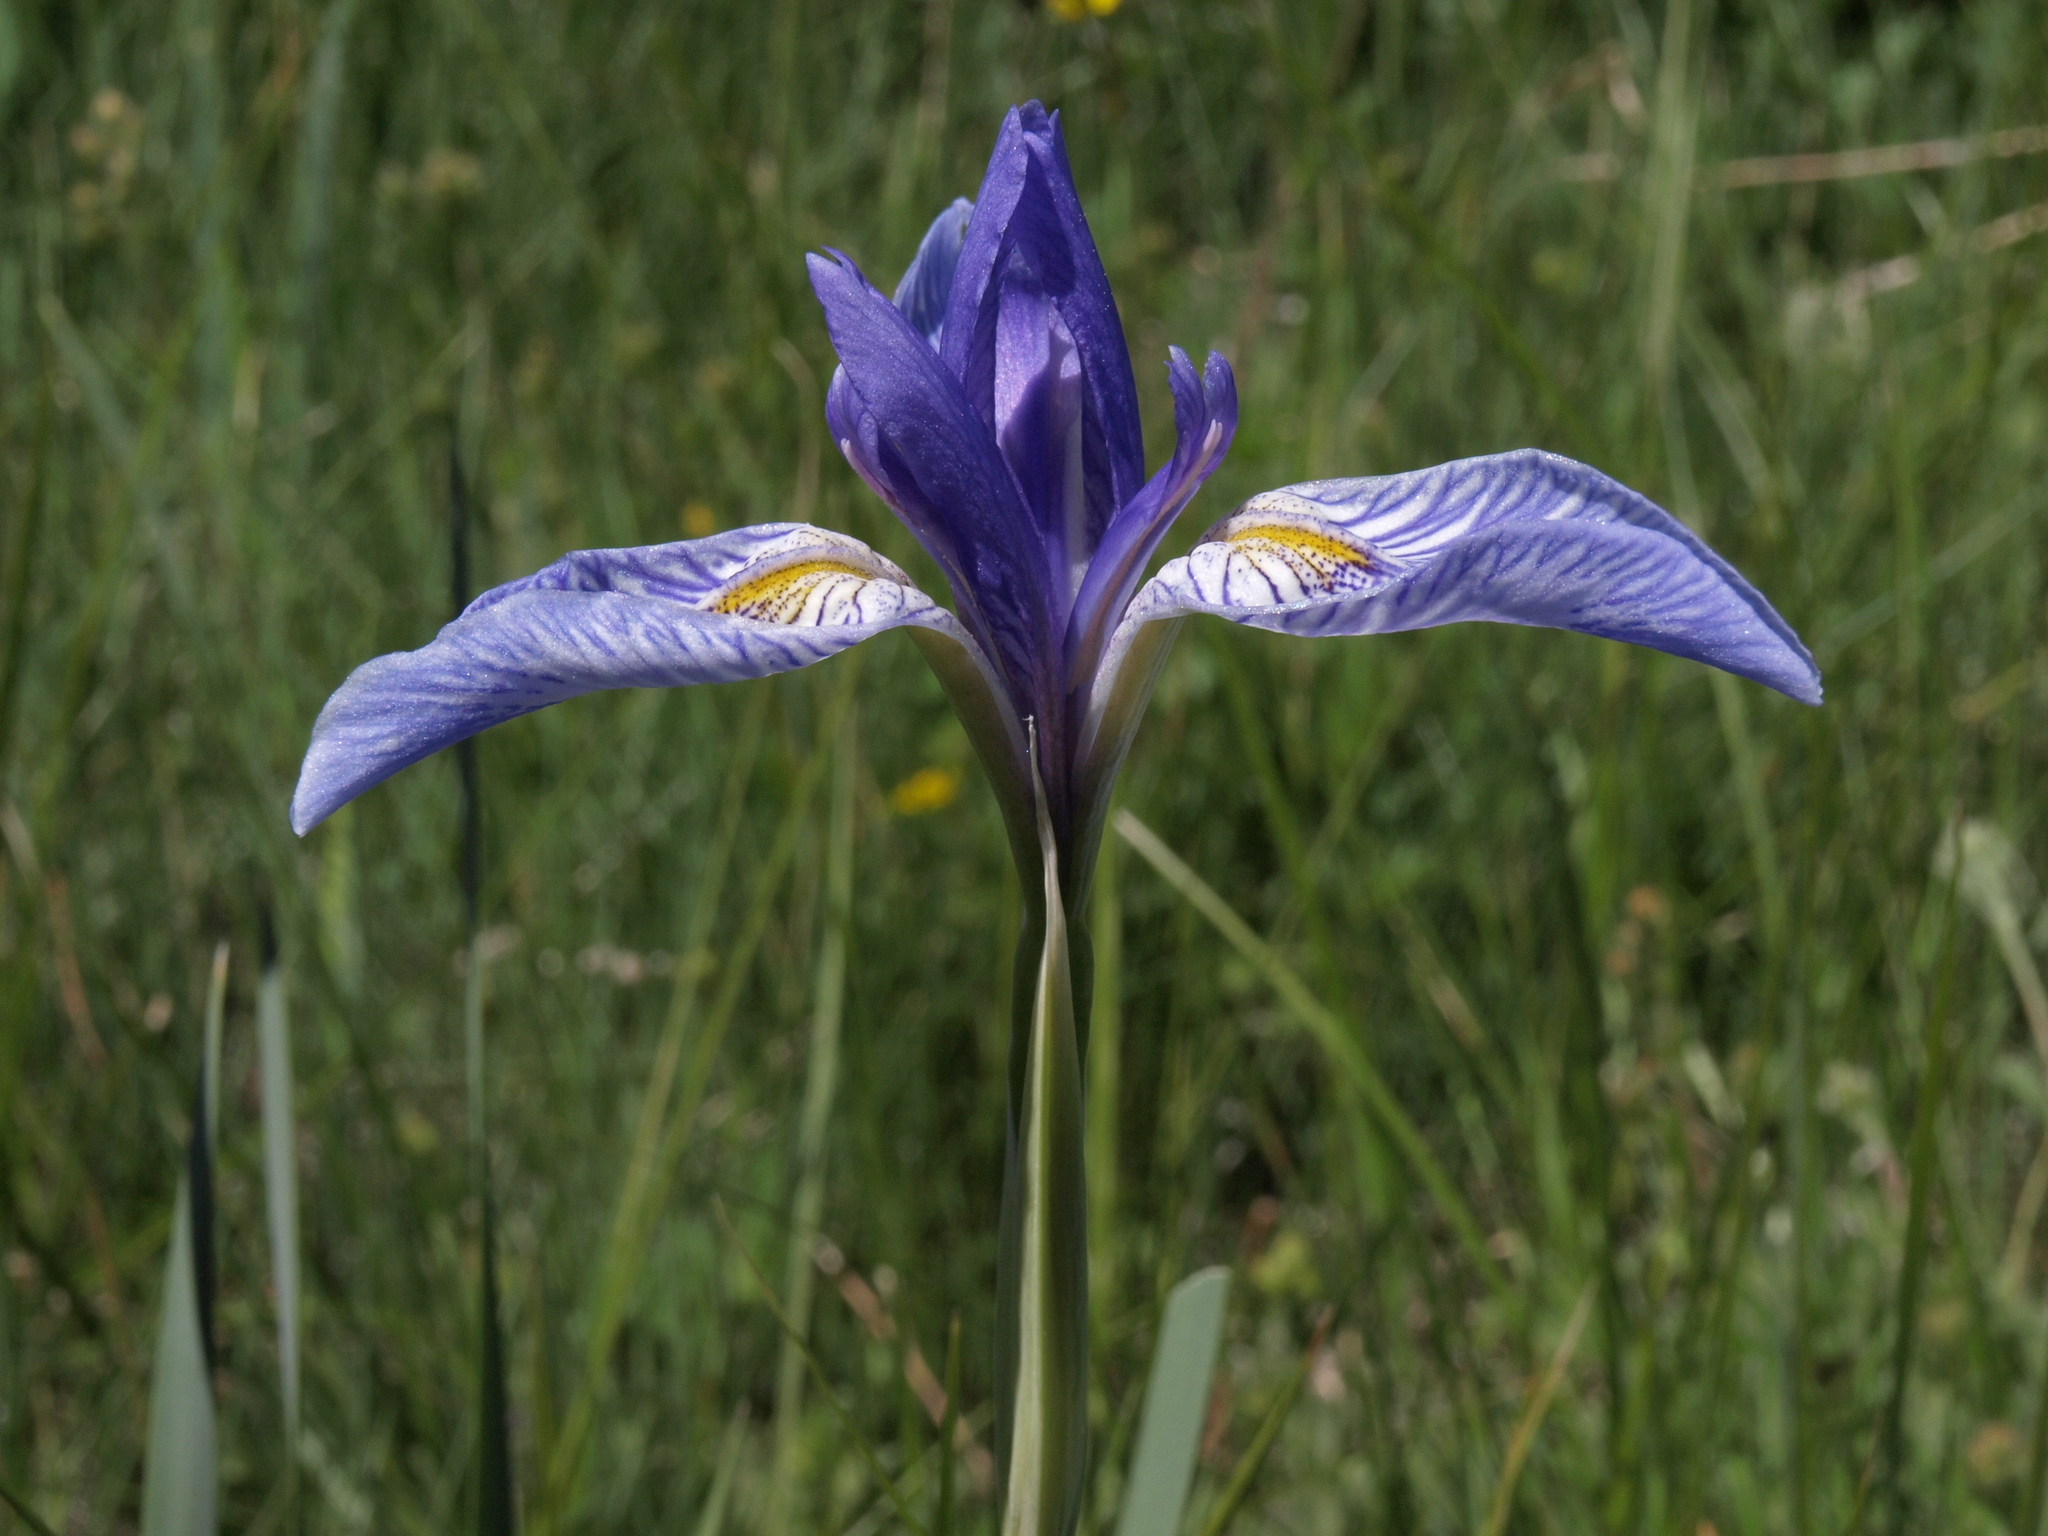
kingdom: Plantae
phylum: Tracheophyta
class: Liliopsida
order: Asparagales
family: Iridaceae
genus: Iris
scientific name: Iris missouriensis
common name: Rocky mountain iris
